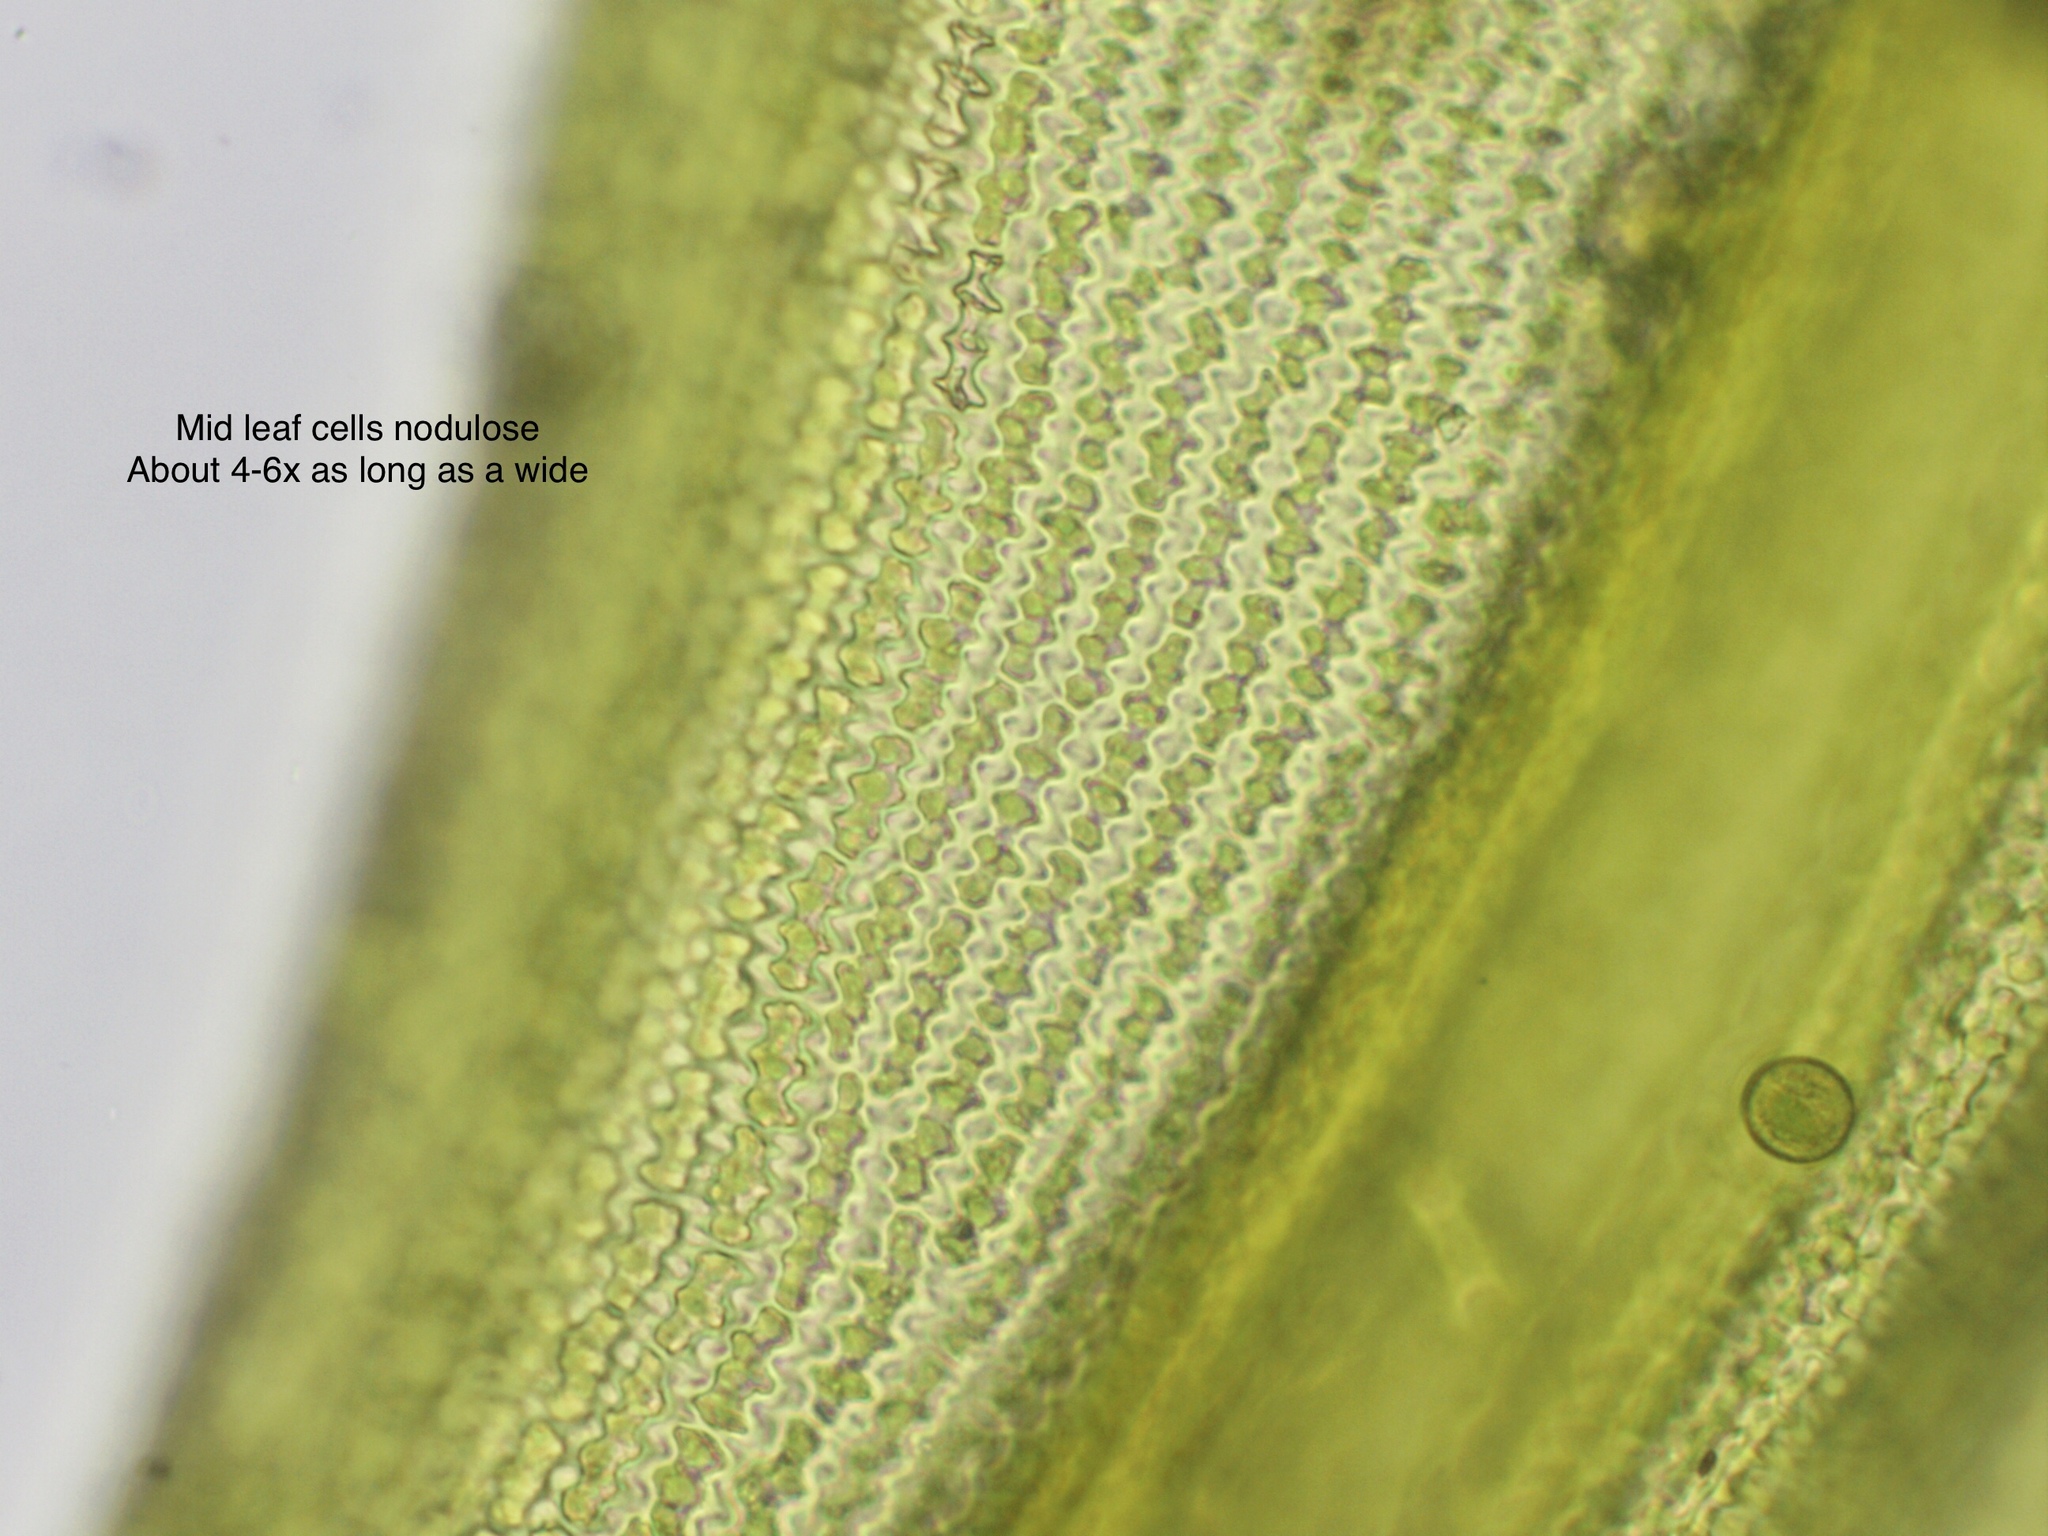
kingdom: Plantae
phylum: Bryophyta
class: Bryopsida
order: Grimmiales
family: Grimmiaceae
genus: Bucklandiella
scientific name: Bucklandiella sudetica
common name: Slender fringe-moss
